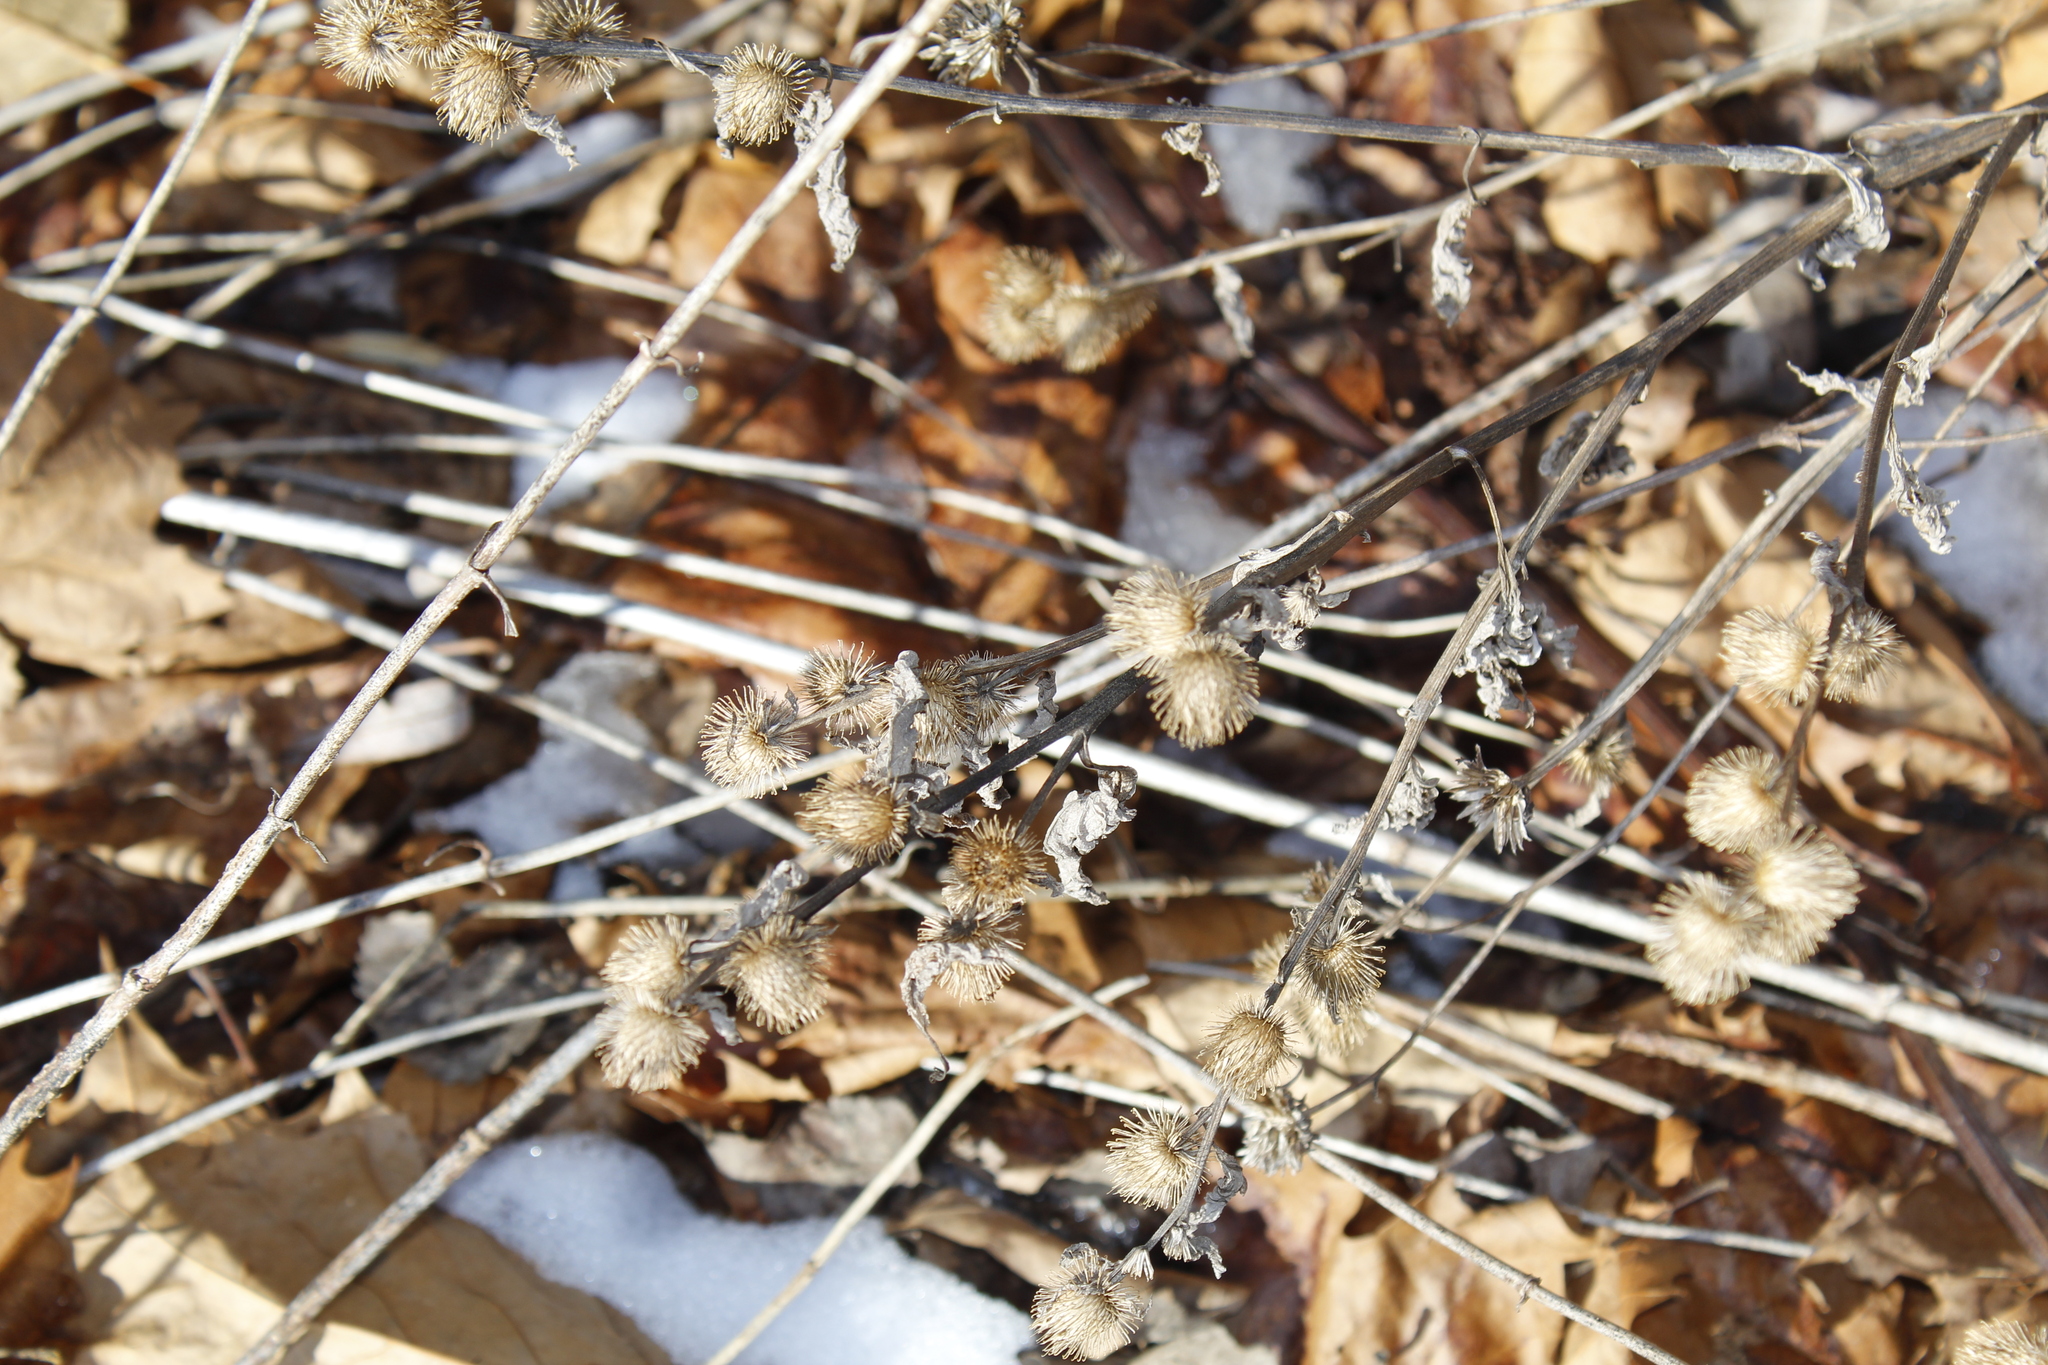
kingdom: Plantae
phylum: Tracheophyta
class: Magnoliopsida
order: Asterales
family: Asteraceae
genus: Arctium
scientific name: Arctium minus
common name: Lesser burdock
